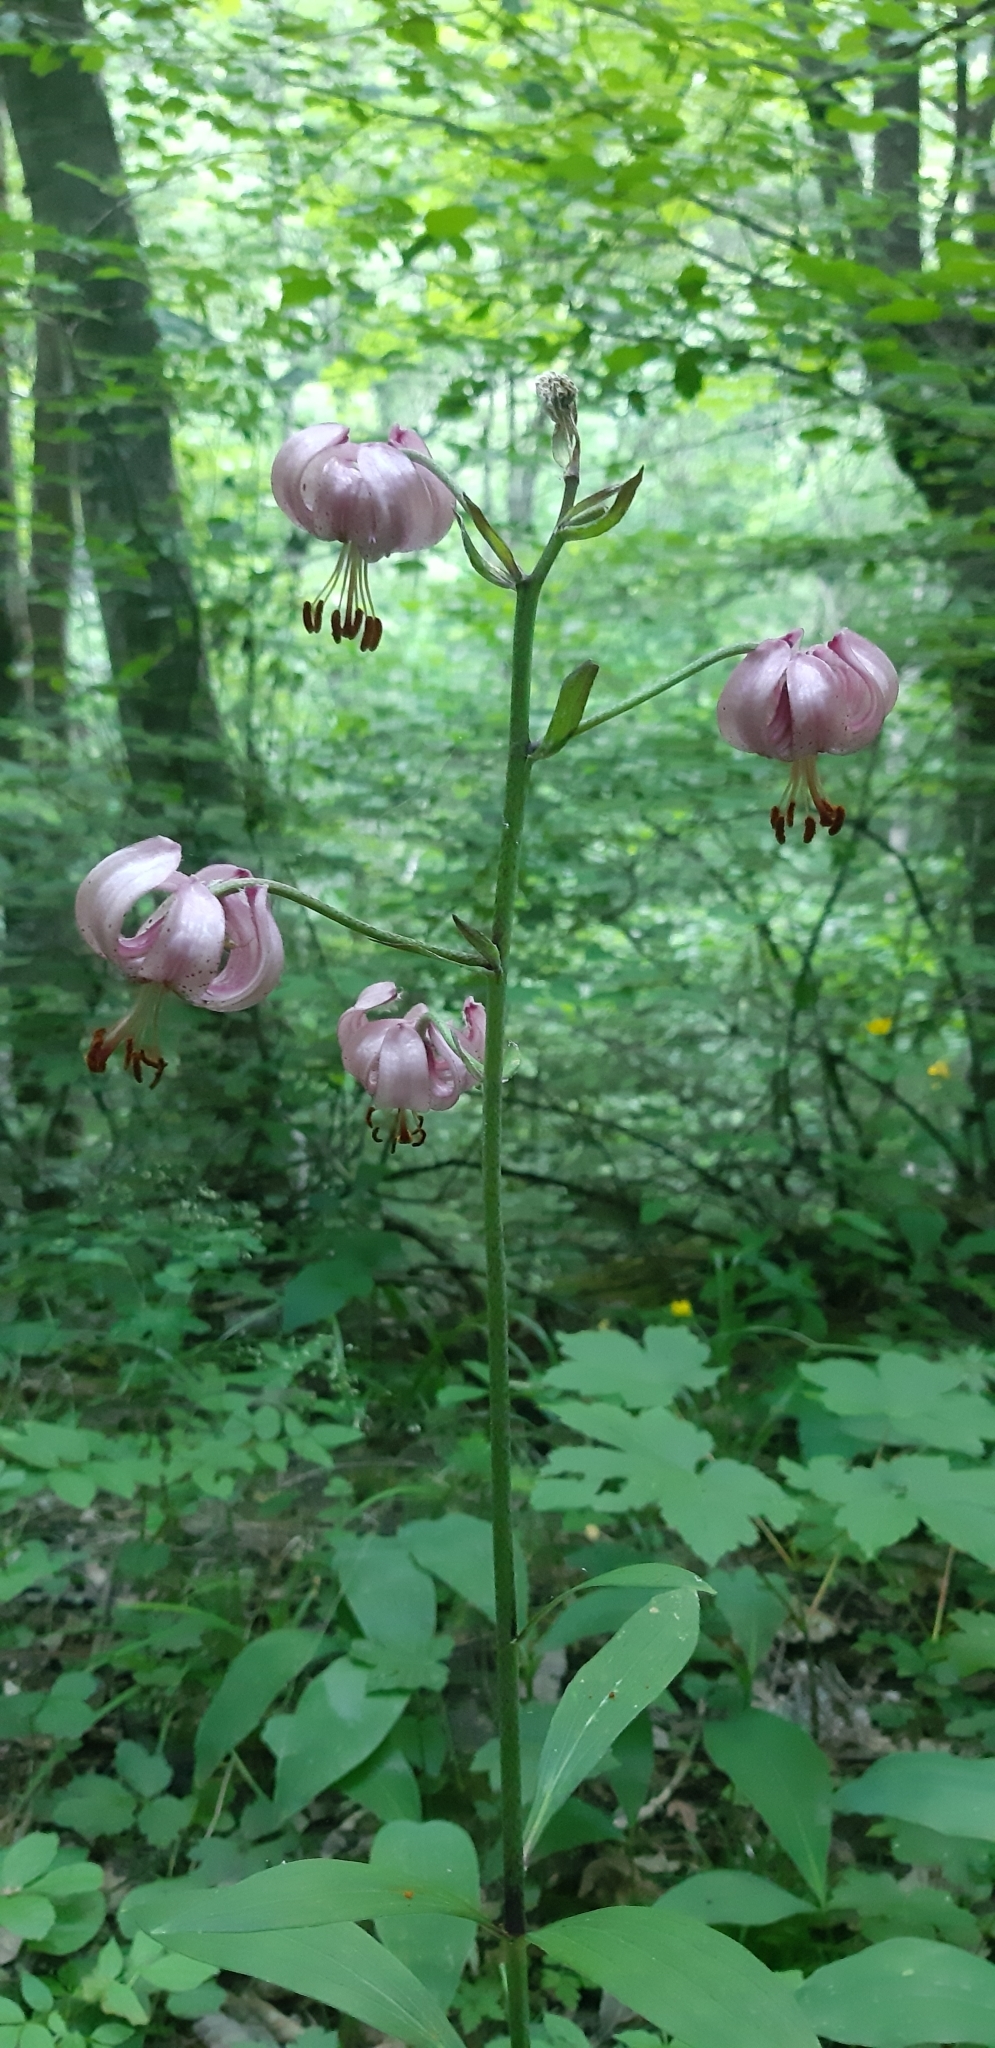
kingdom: Plantae
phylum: Tracheophyta
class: Liliopsida
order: Liliales
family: Liliaceae
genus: Lilium
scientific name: Lilium martagon
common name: Martagon lily
